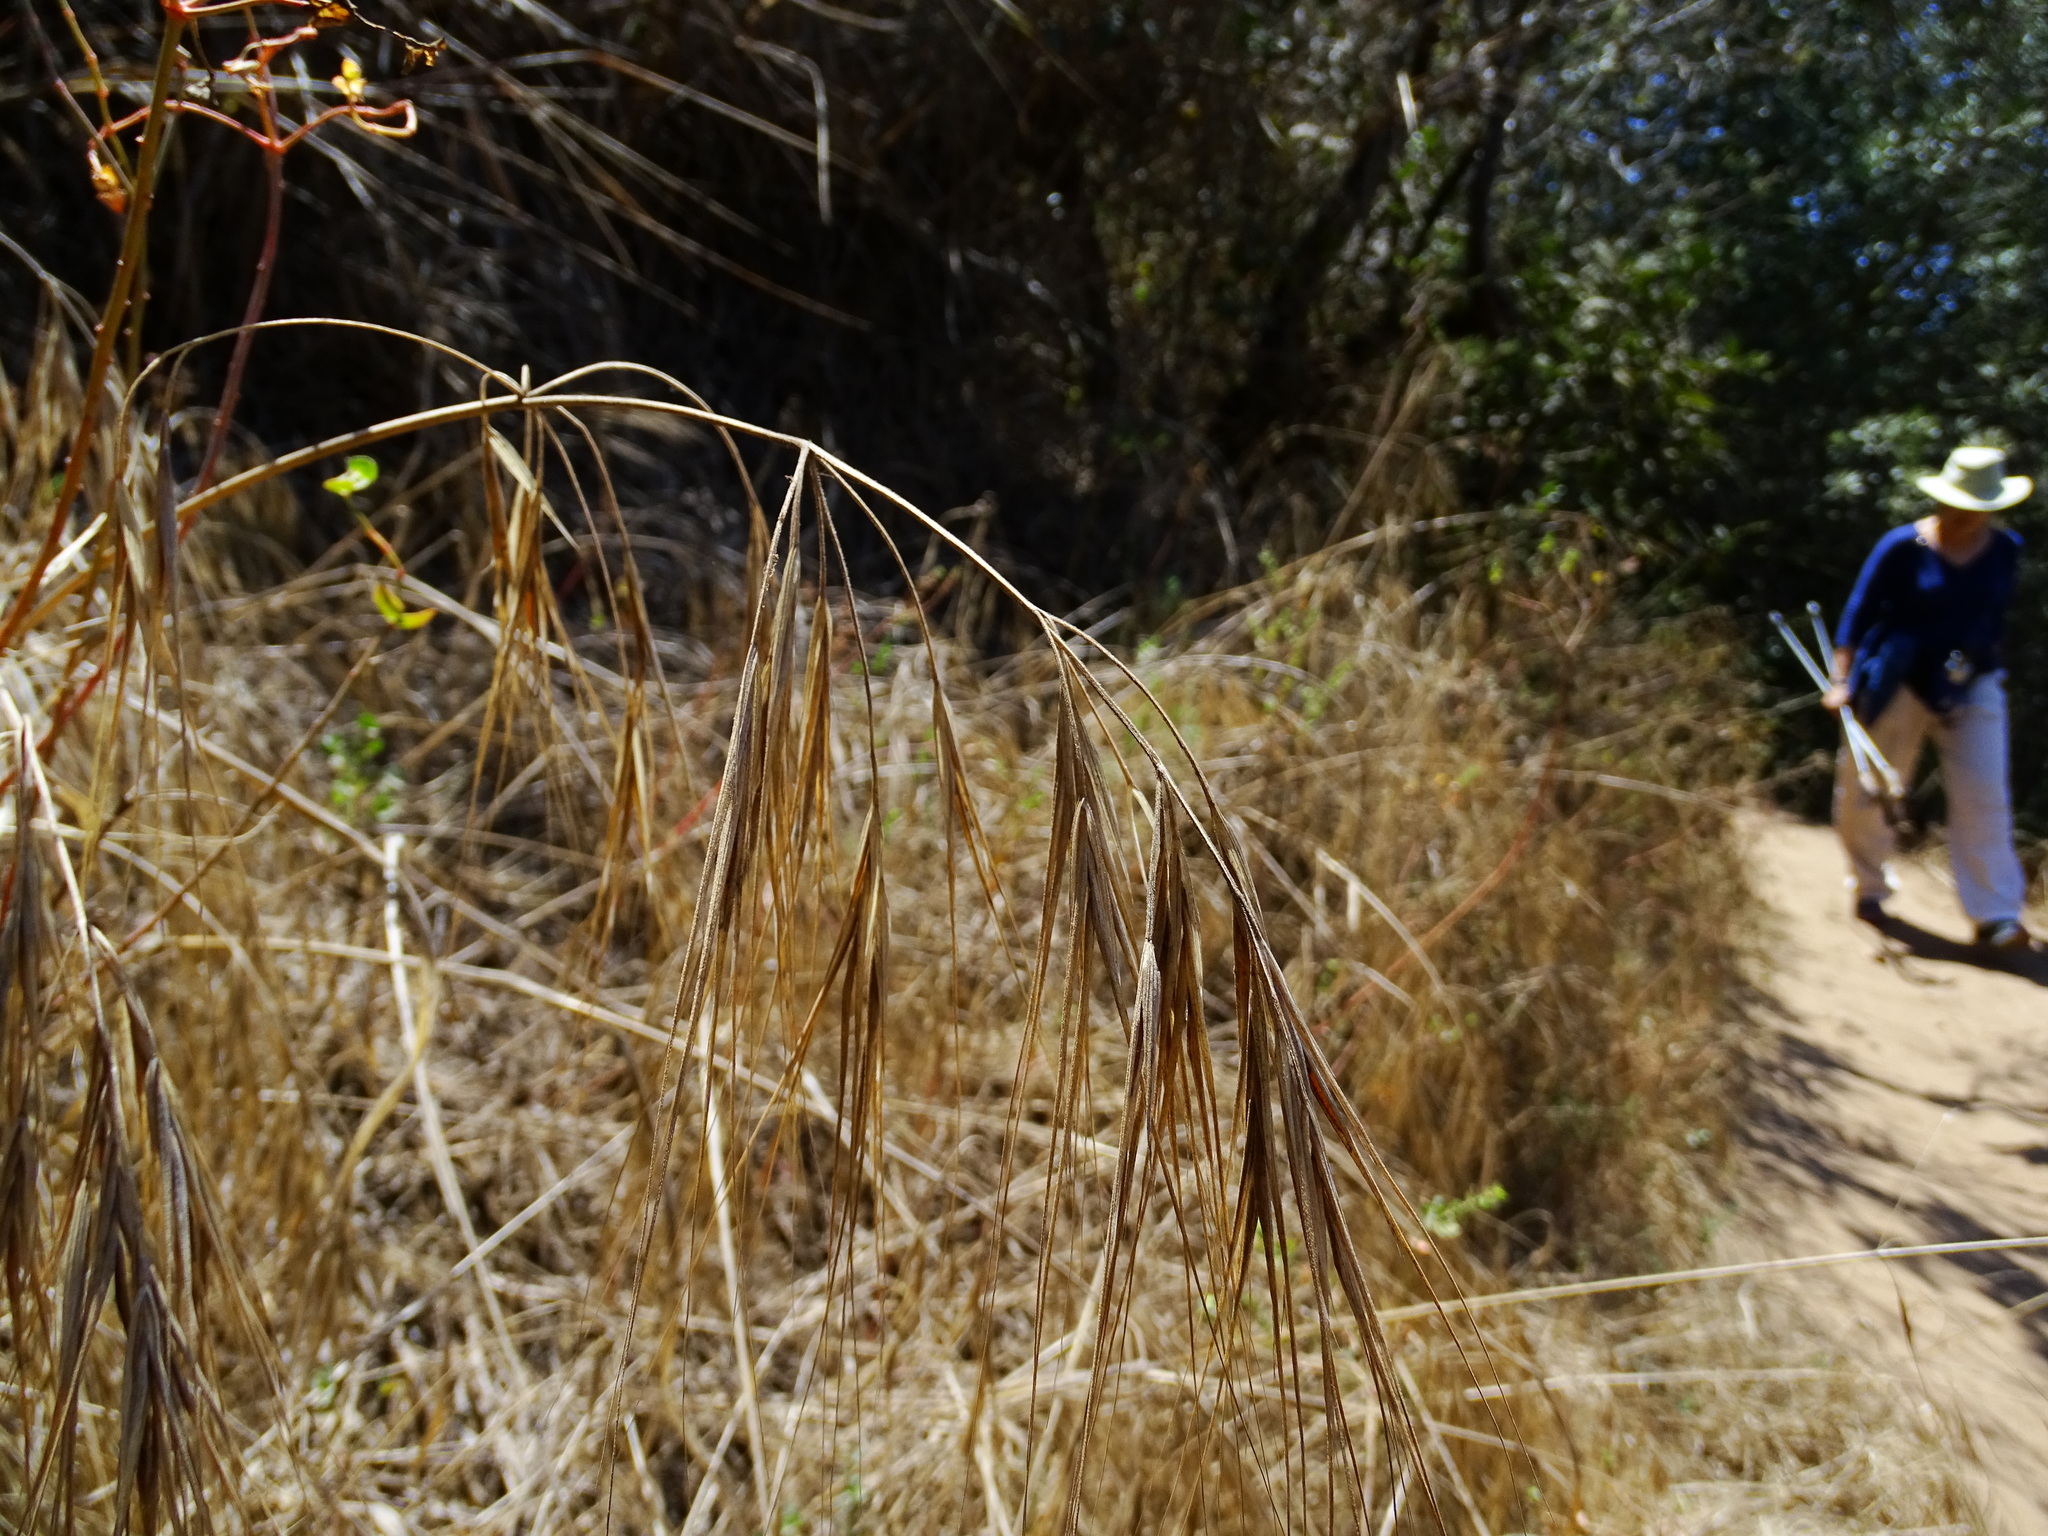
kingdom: Plantae
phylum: Tracheophyta
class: Liliopsida
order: Poales
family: Poaceae
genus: Bromus
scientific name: Bromus diandrus
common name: Ripgut brome
